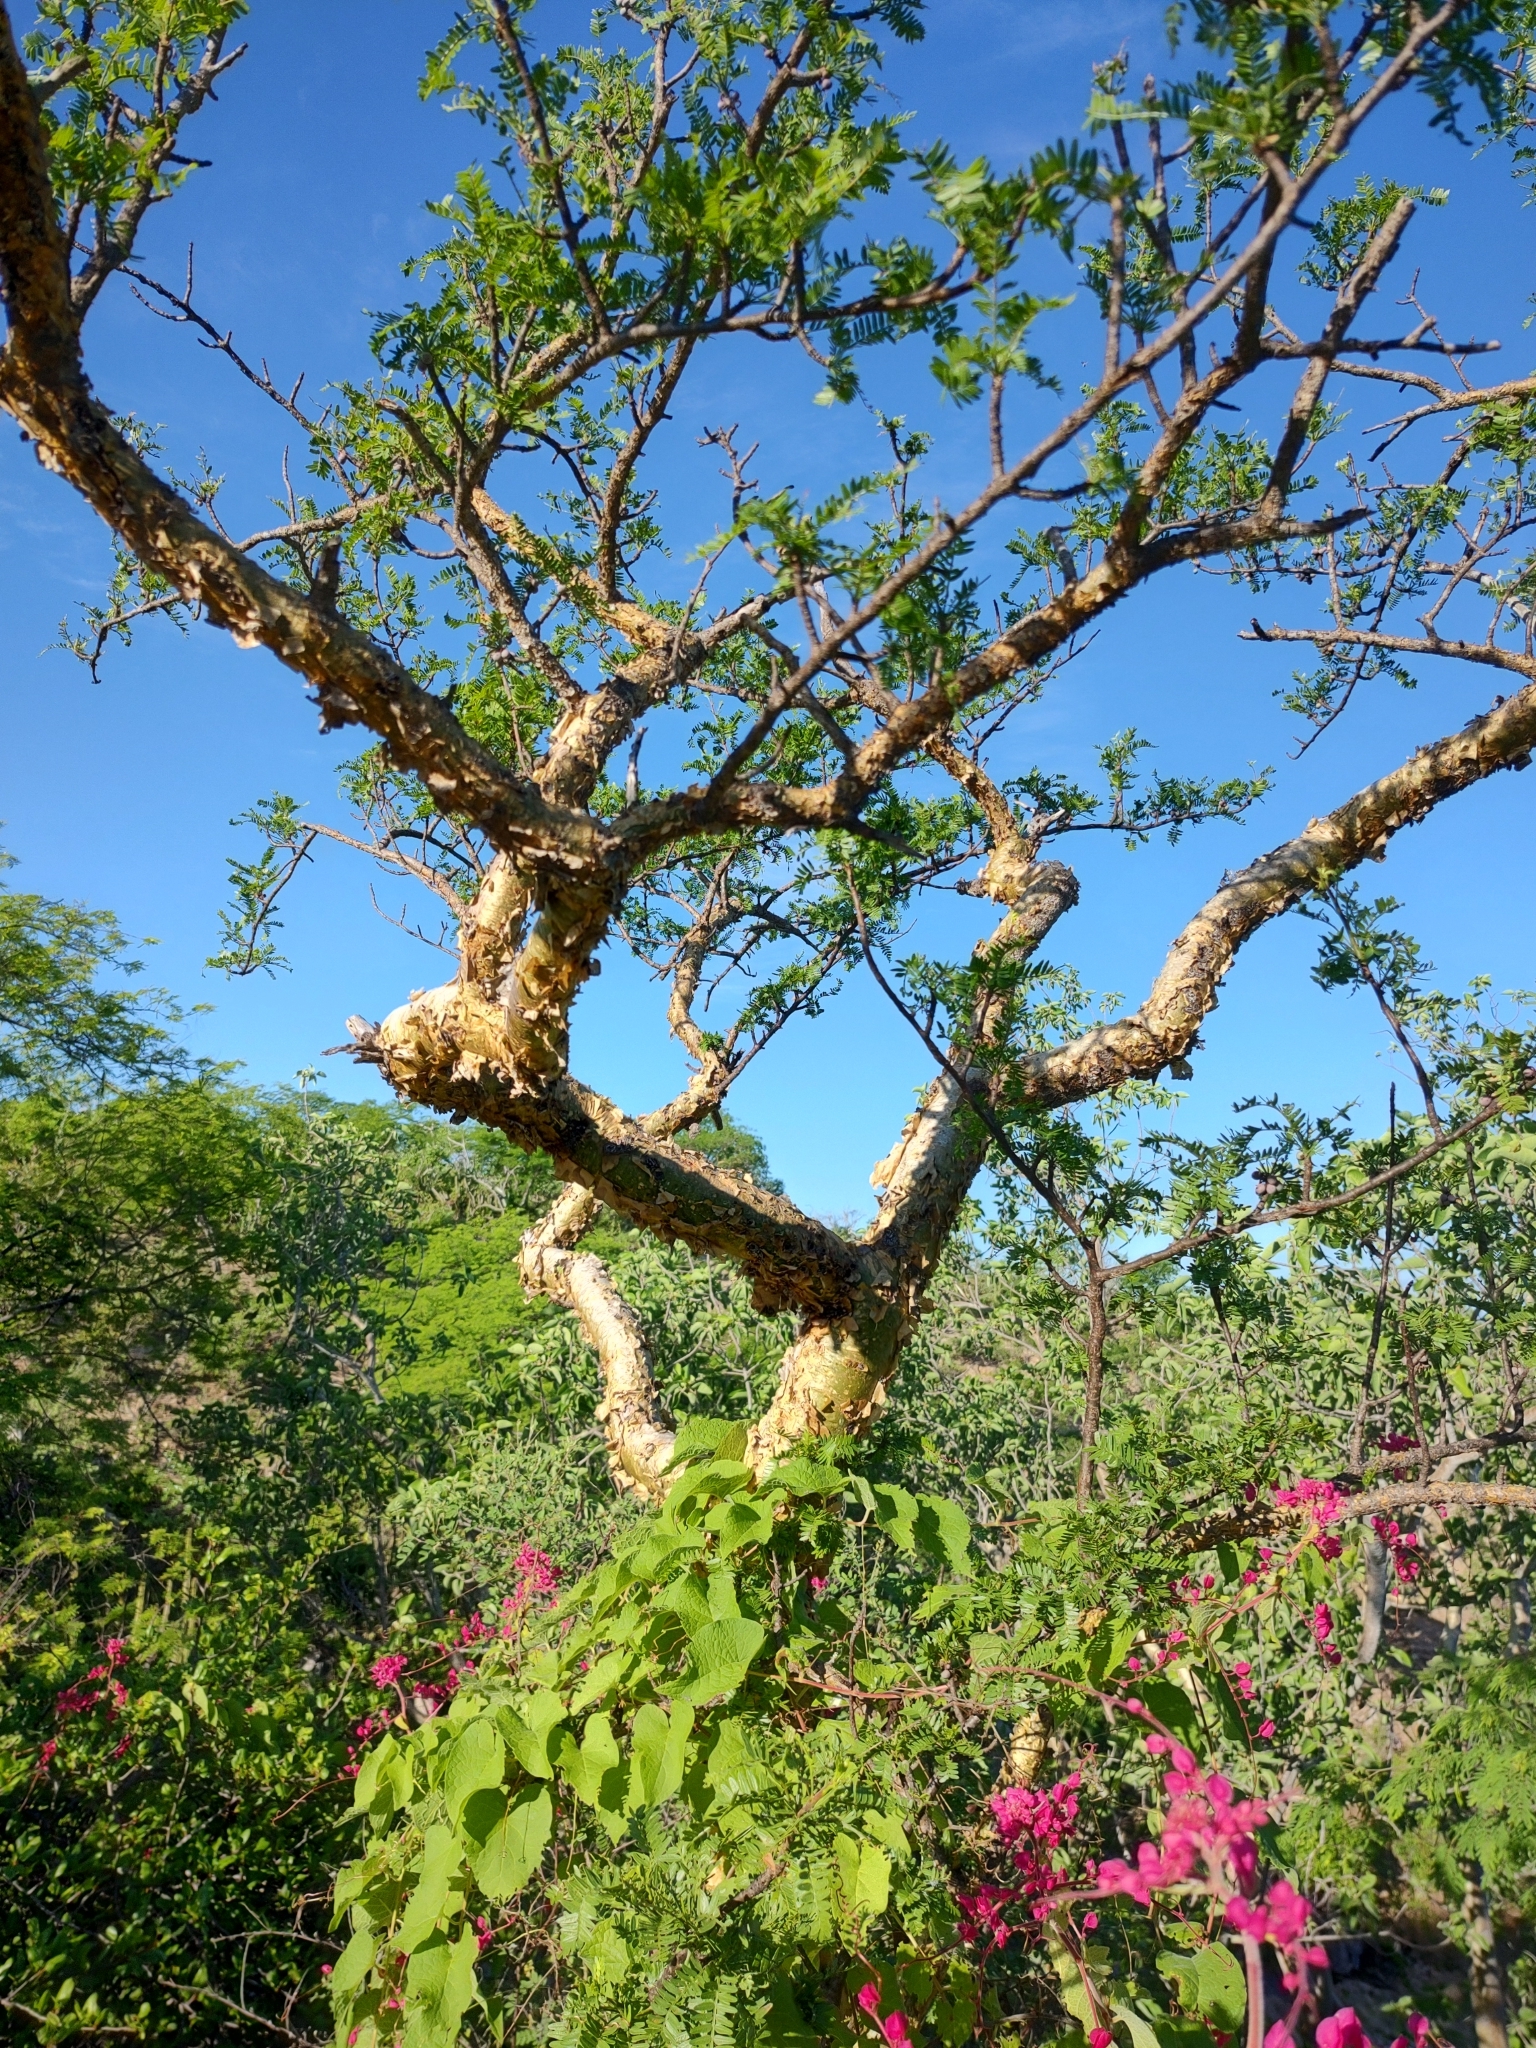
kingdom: Plantae
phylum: Tracheophyta
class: Magnoliopsida
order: Sapindales
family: Burseraceae
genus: Bursera
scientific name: Bursera microphylla
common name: Elephant tree
